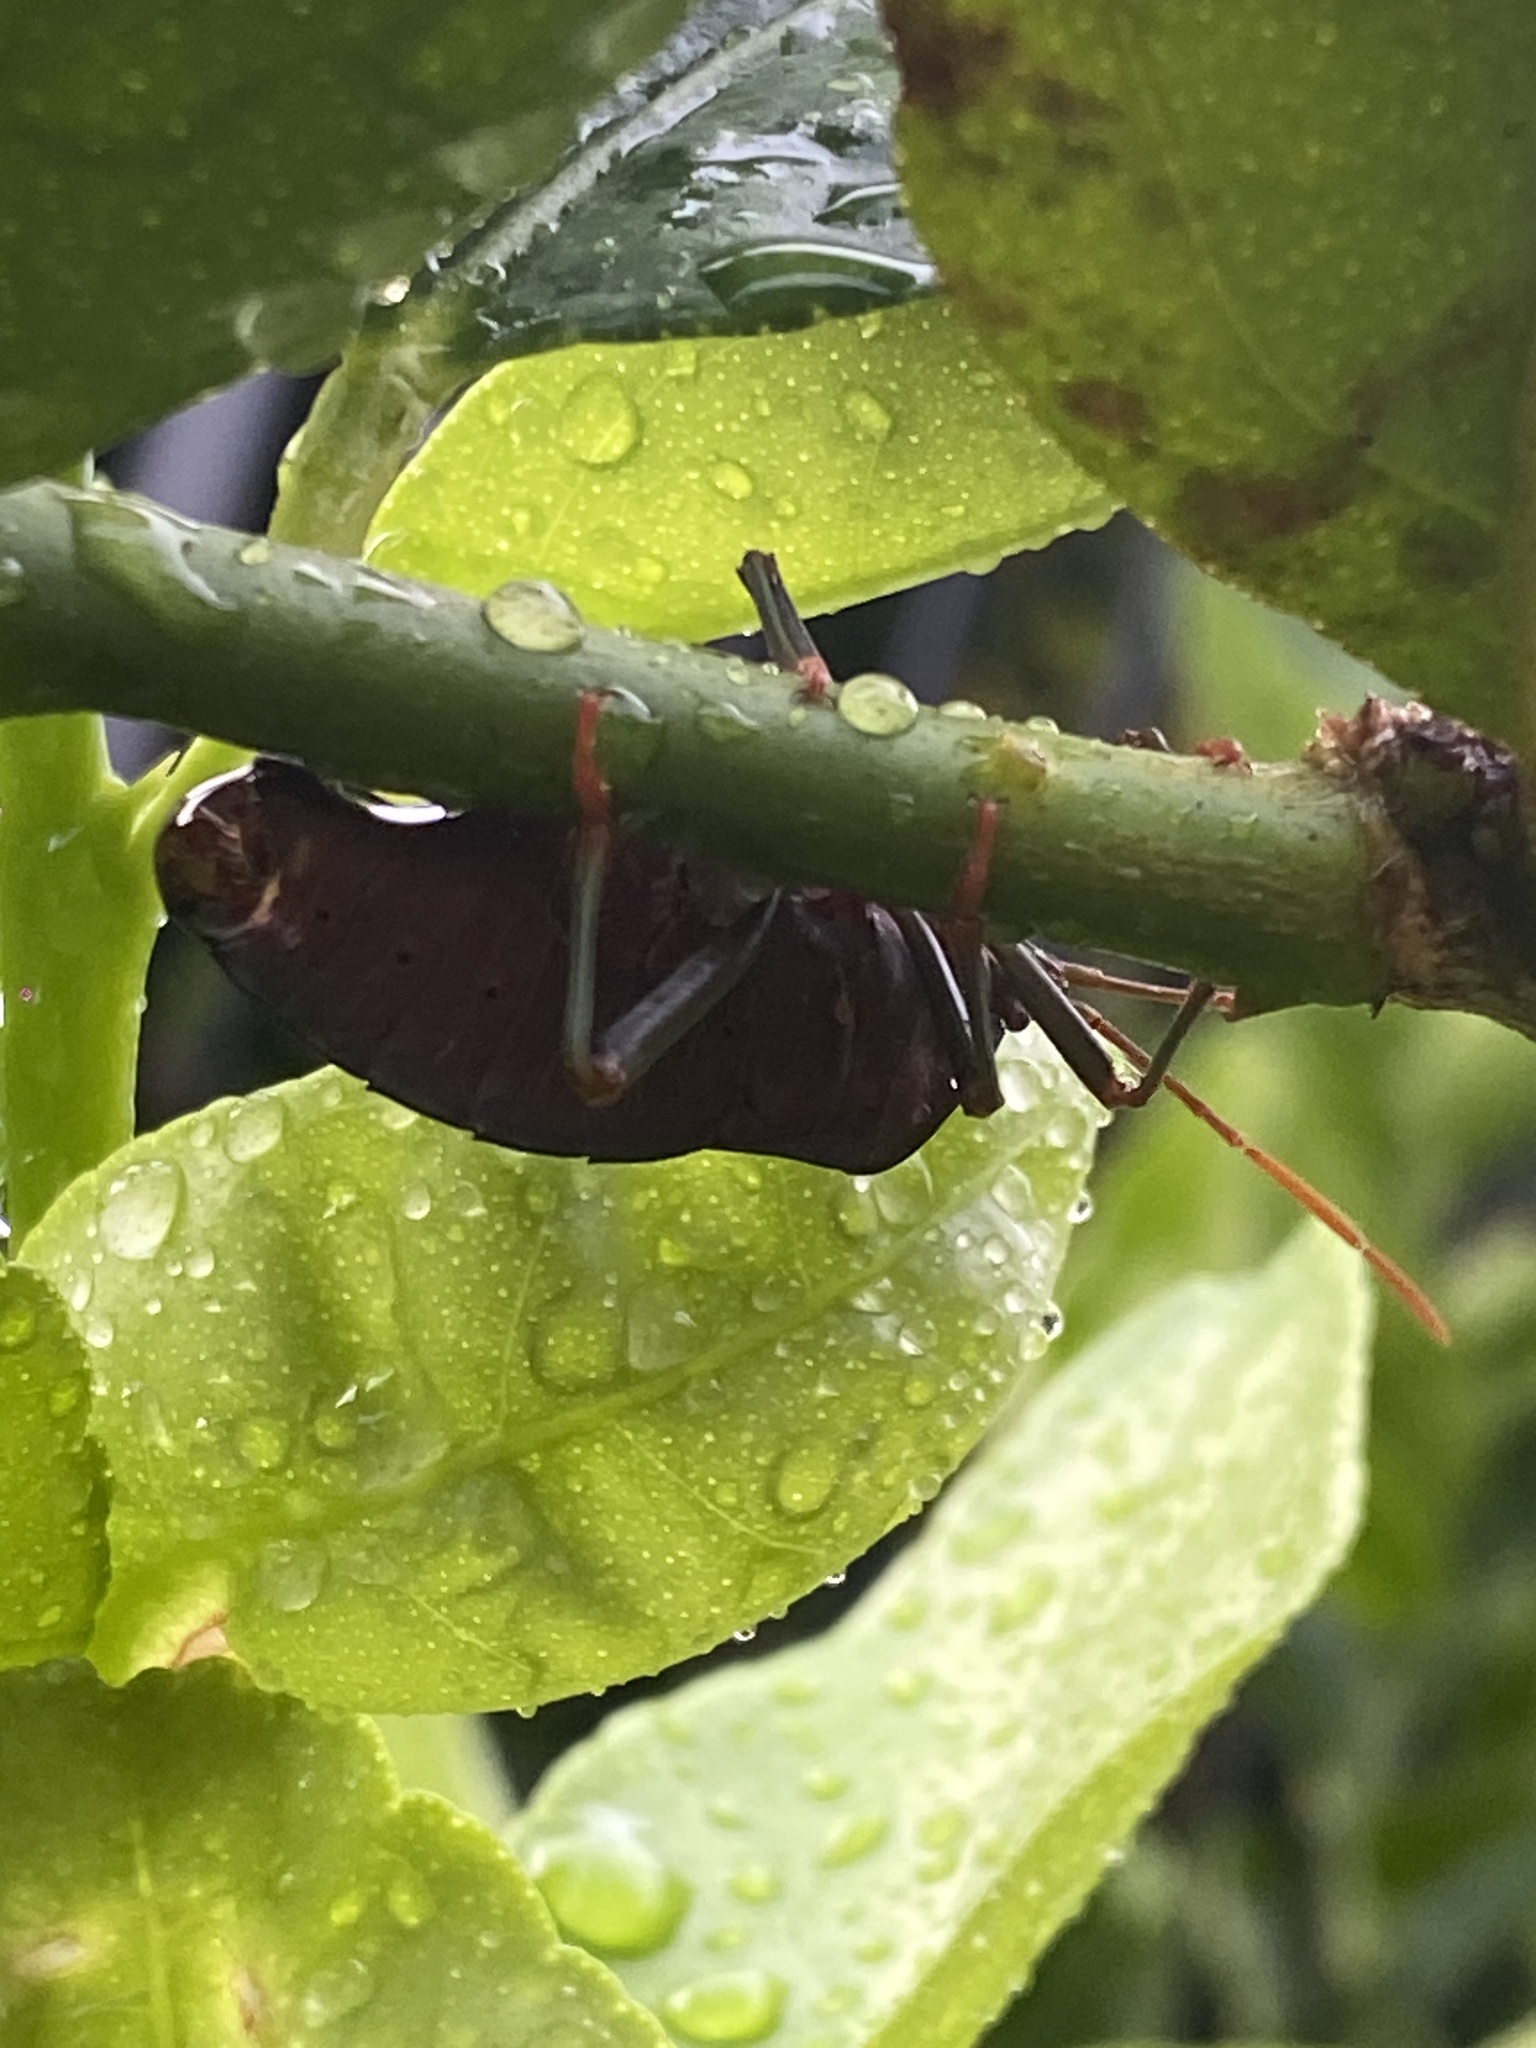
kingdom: Animalia
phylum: Arthropoda
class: Insecta
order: Hemiptera
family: Tessaratomidae
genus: Musgraveia
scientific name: Musgraveia sulciventris
